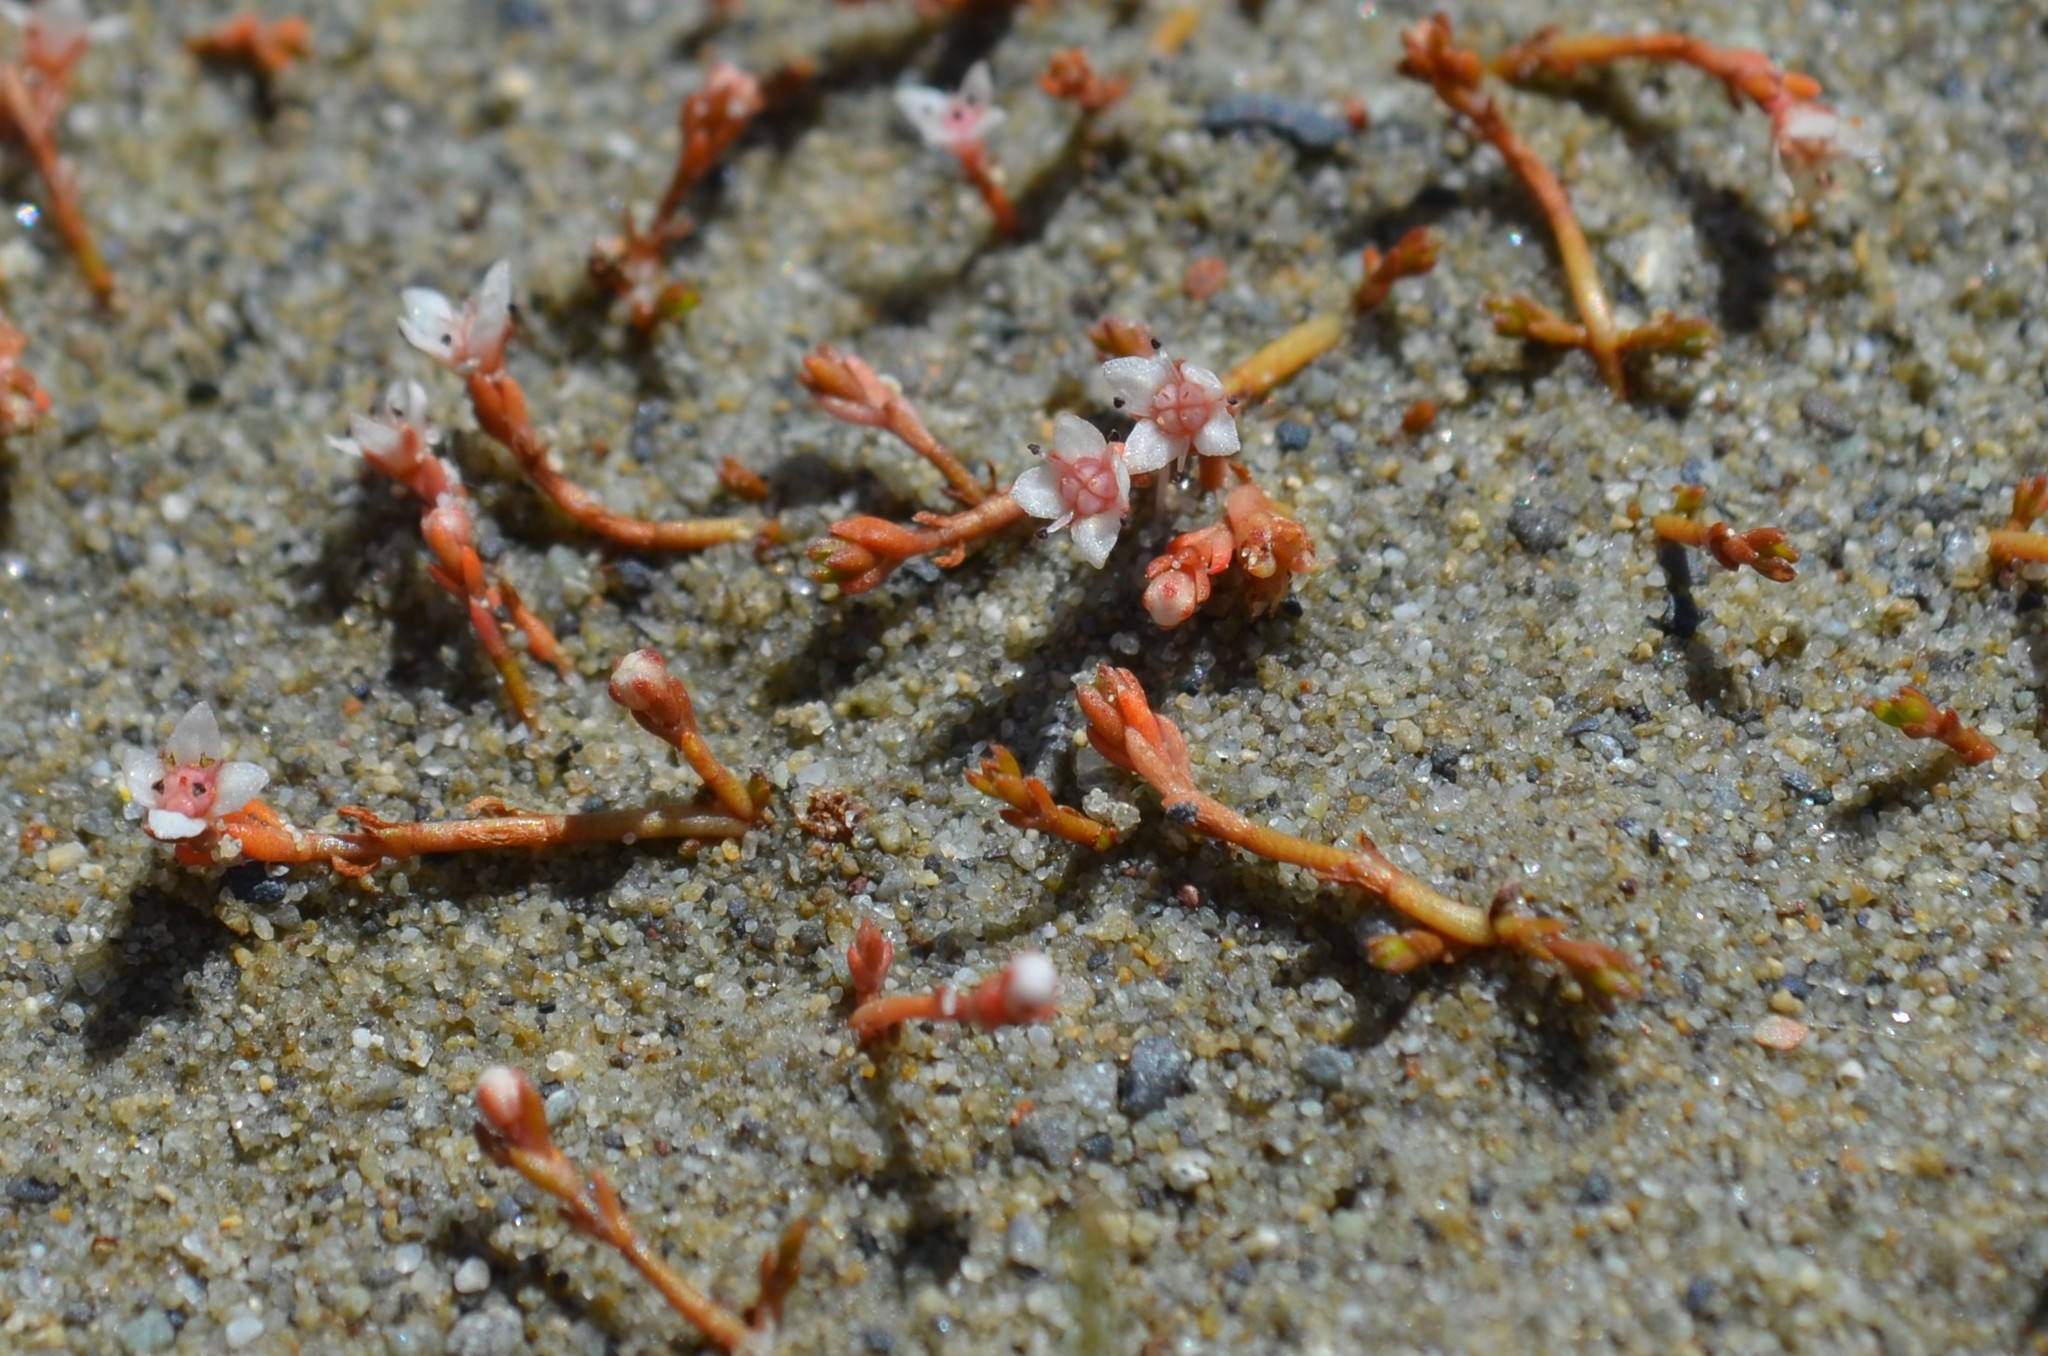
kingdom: Plantae
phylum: Tracheophyta
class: Magnoliopsida
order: Saxifragales
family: Crassulaceae
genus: Crassula
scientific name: Crassula sinclairii
